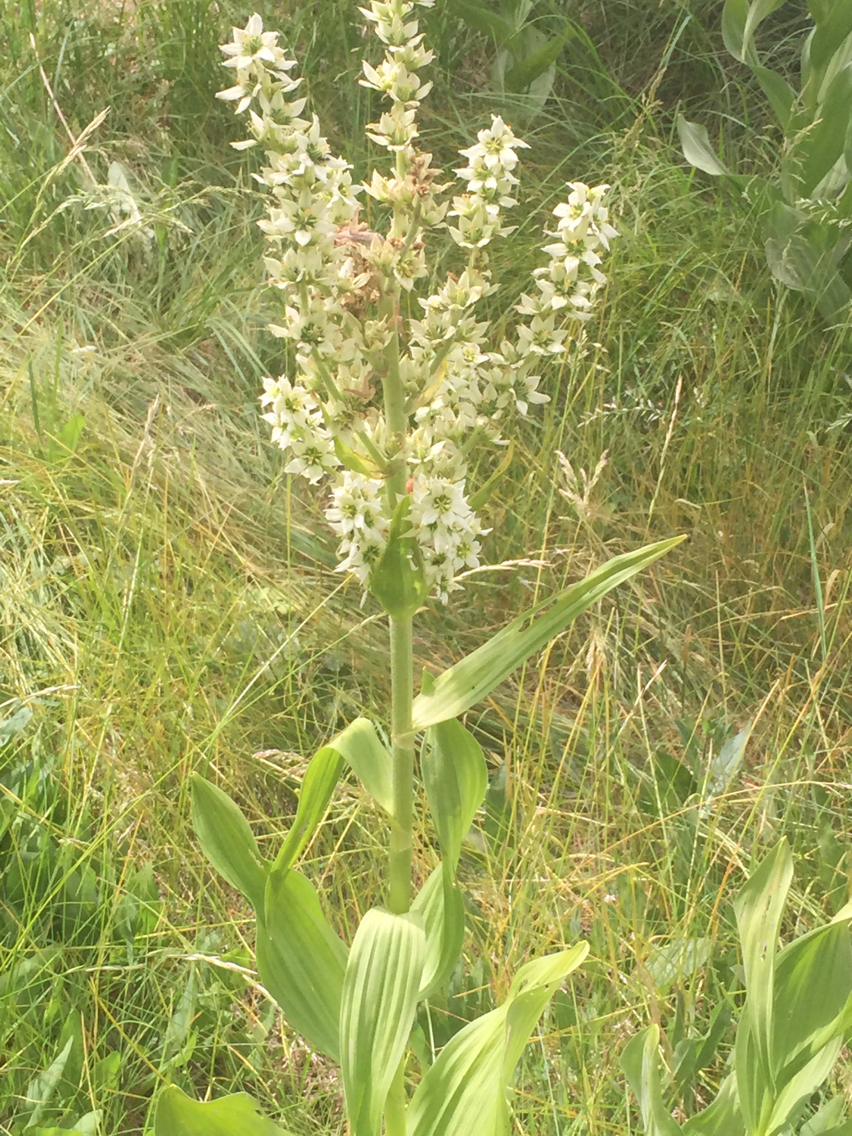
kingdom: Plantae
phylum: Tracheophyta
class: Liliopsida
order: Liliales
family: Melanthiaceae
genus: Veratrum
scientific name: Veratrum californicum
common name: California veratrum
